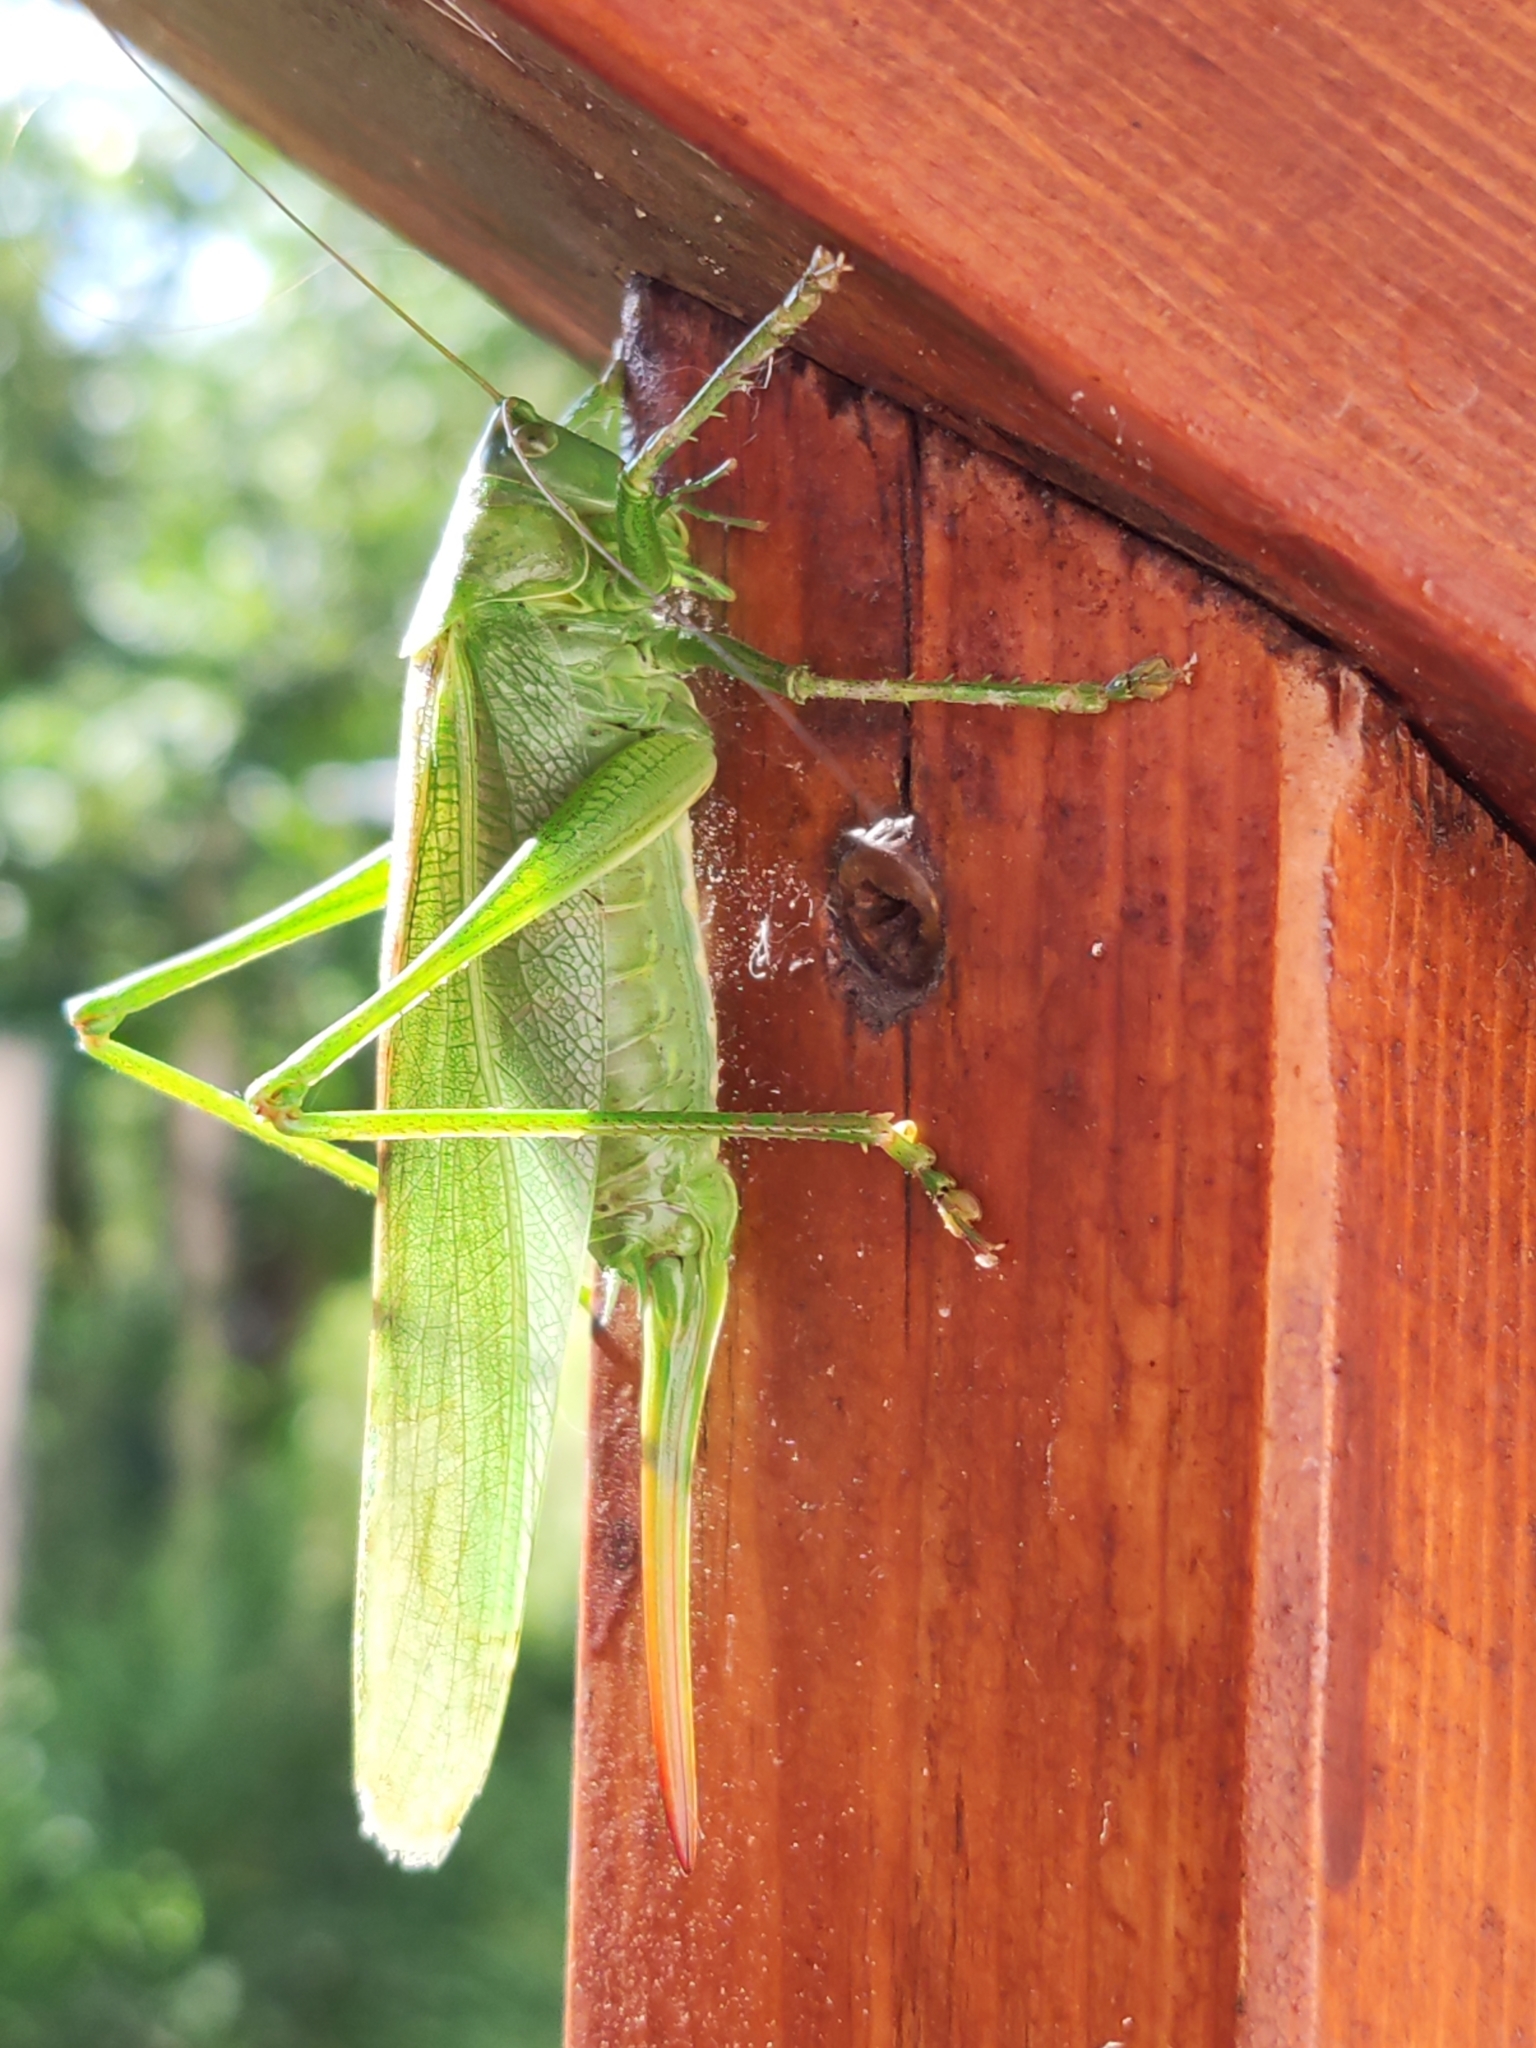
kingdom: Animalia
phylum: Arthropoda
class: Insecta
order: Orthoptera
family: Tettigoniidae
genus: Tettigonia
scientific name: Tettigonia viridissima
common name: Great green bush-cricket
